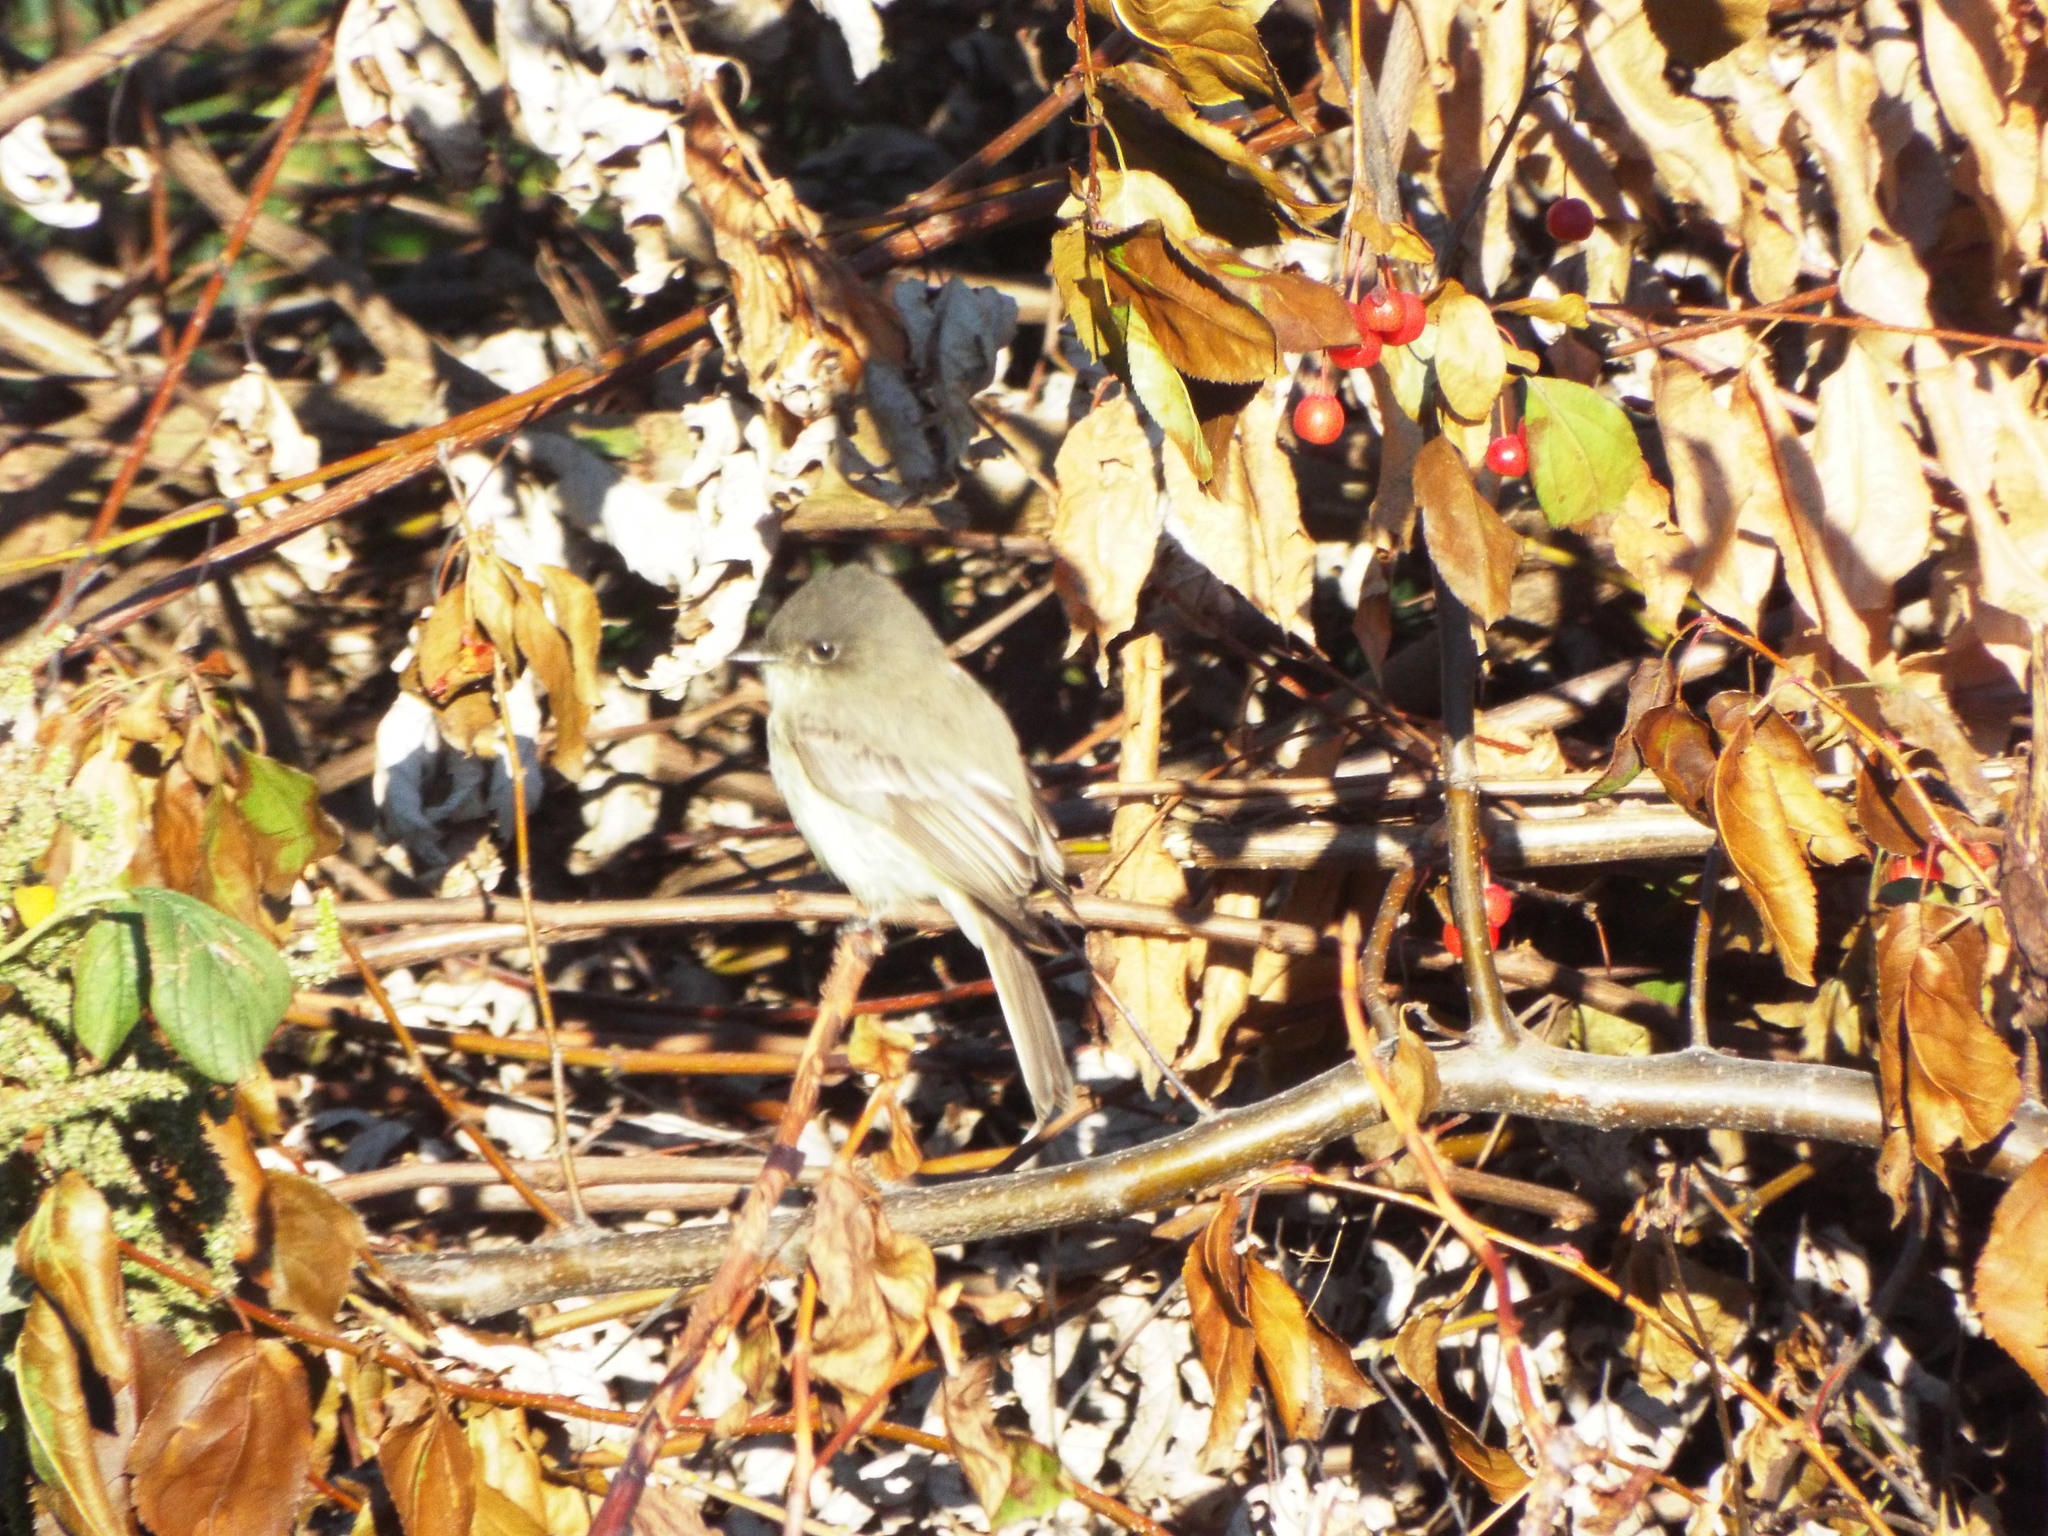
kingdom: Animalia
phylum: Chordata
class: Aves
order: Passeriformes
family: Tyrannidae
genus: Sayornis
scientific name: Sayornis phoebe
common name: Eastern phoebe
